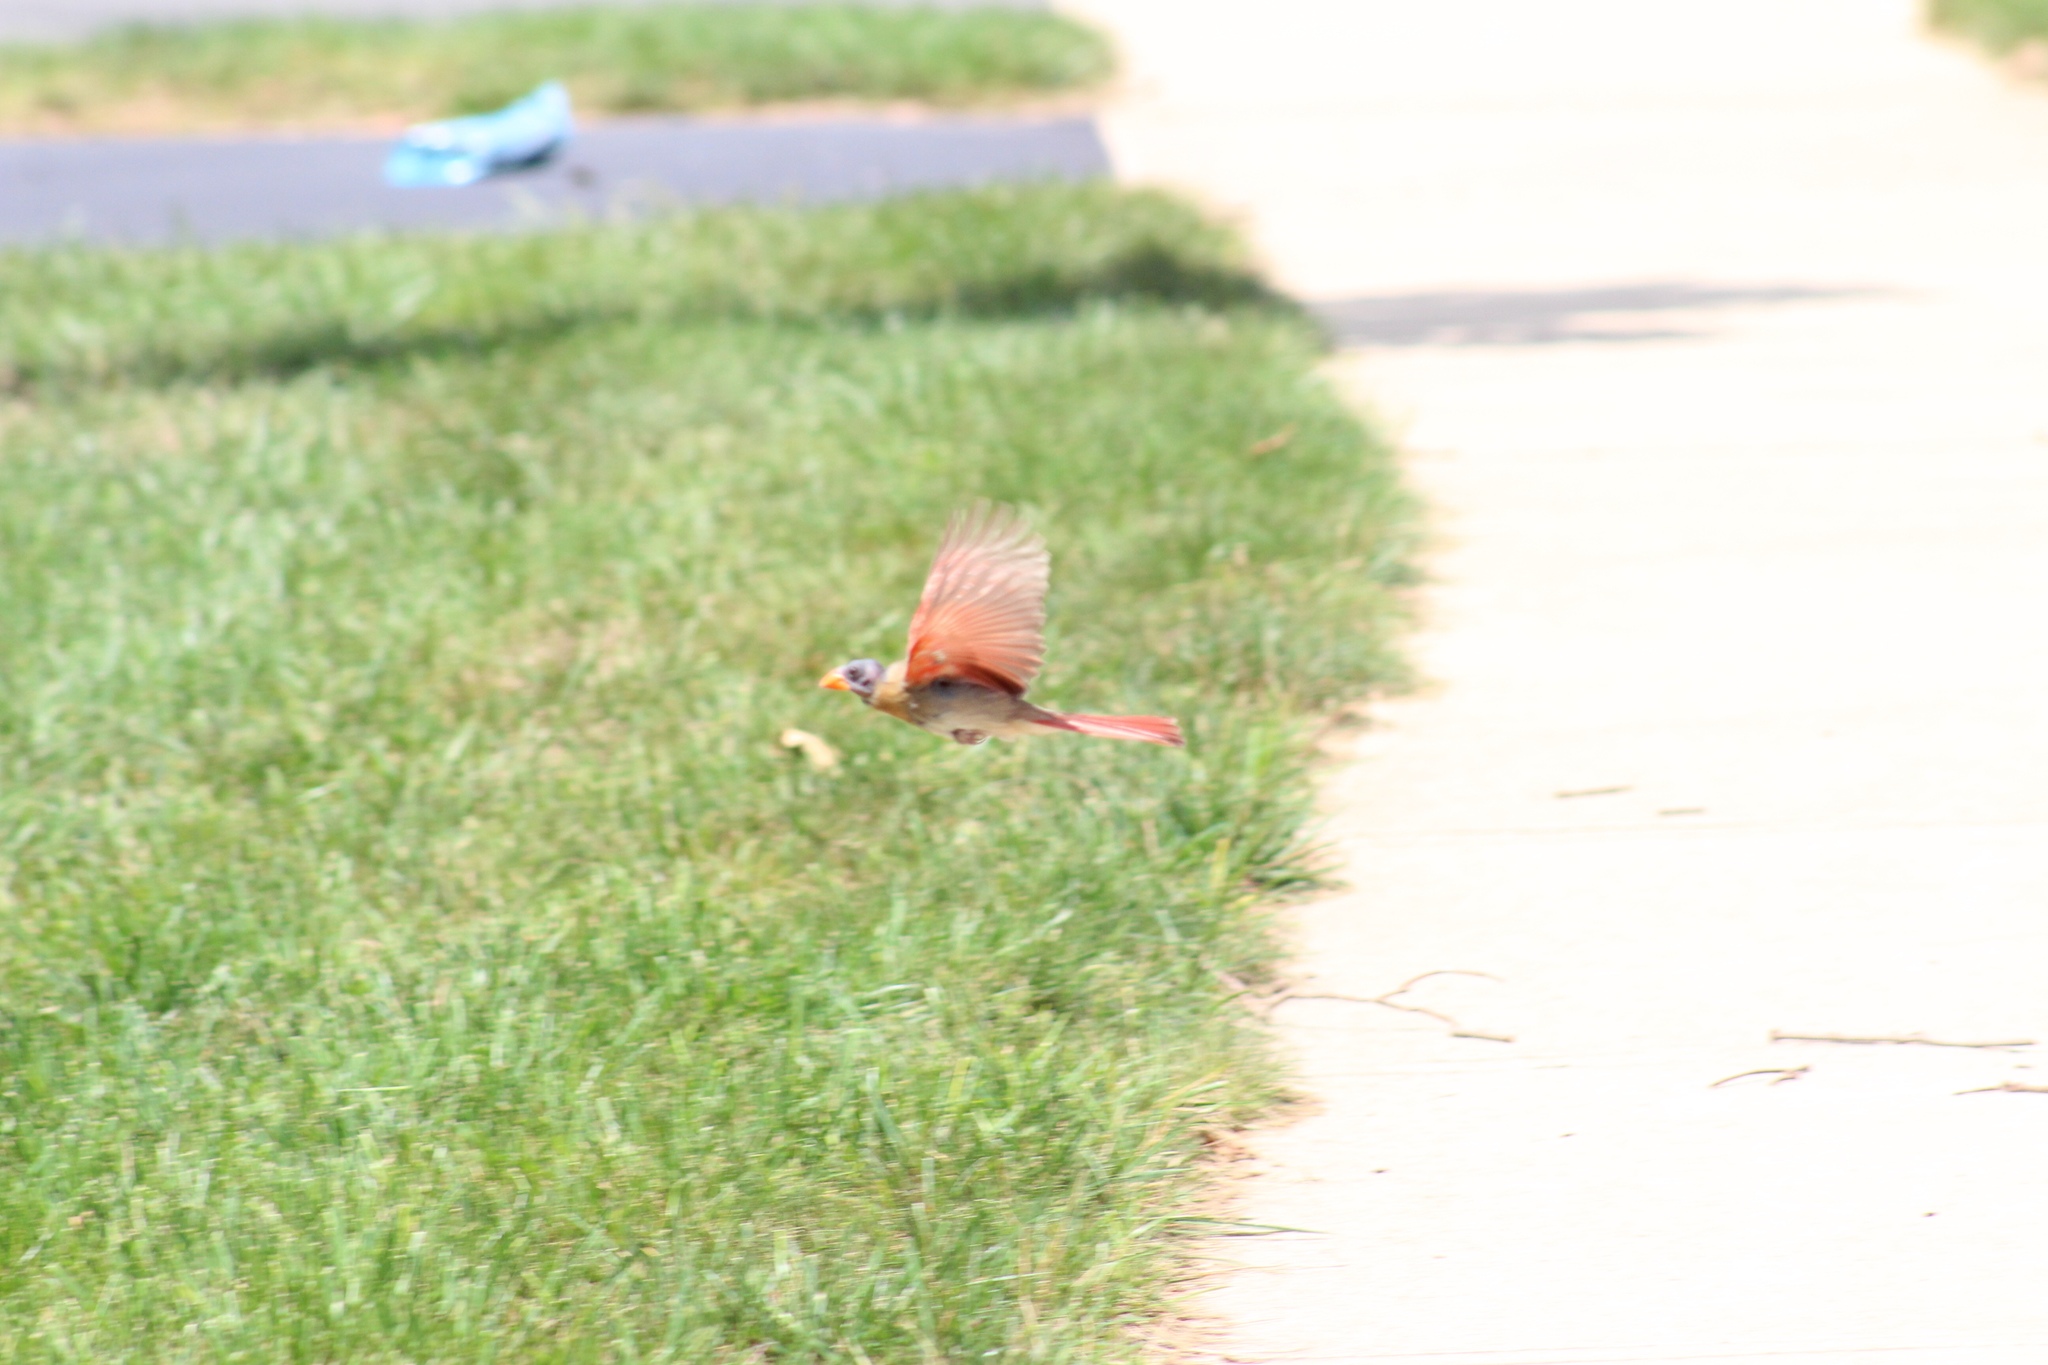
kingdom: Animalia
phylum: Chordata
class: Aves
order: Passeriformes
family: Cardinalidae
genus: Cardinalis
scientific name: Cardinalis cardinalis
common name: Northern cardinal
